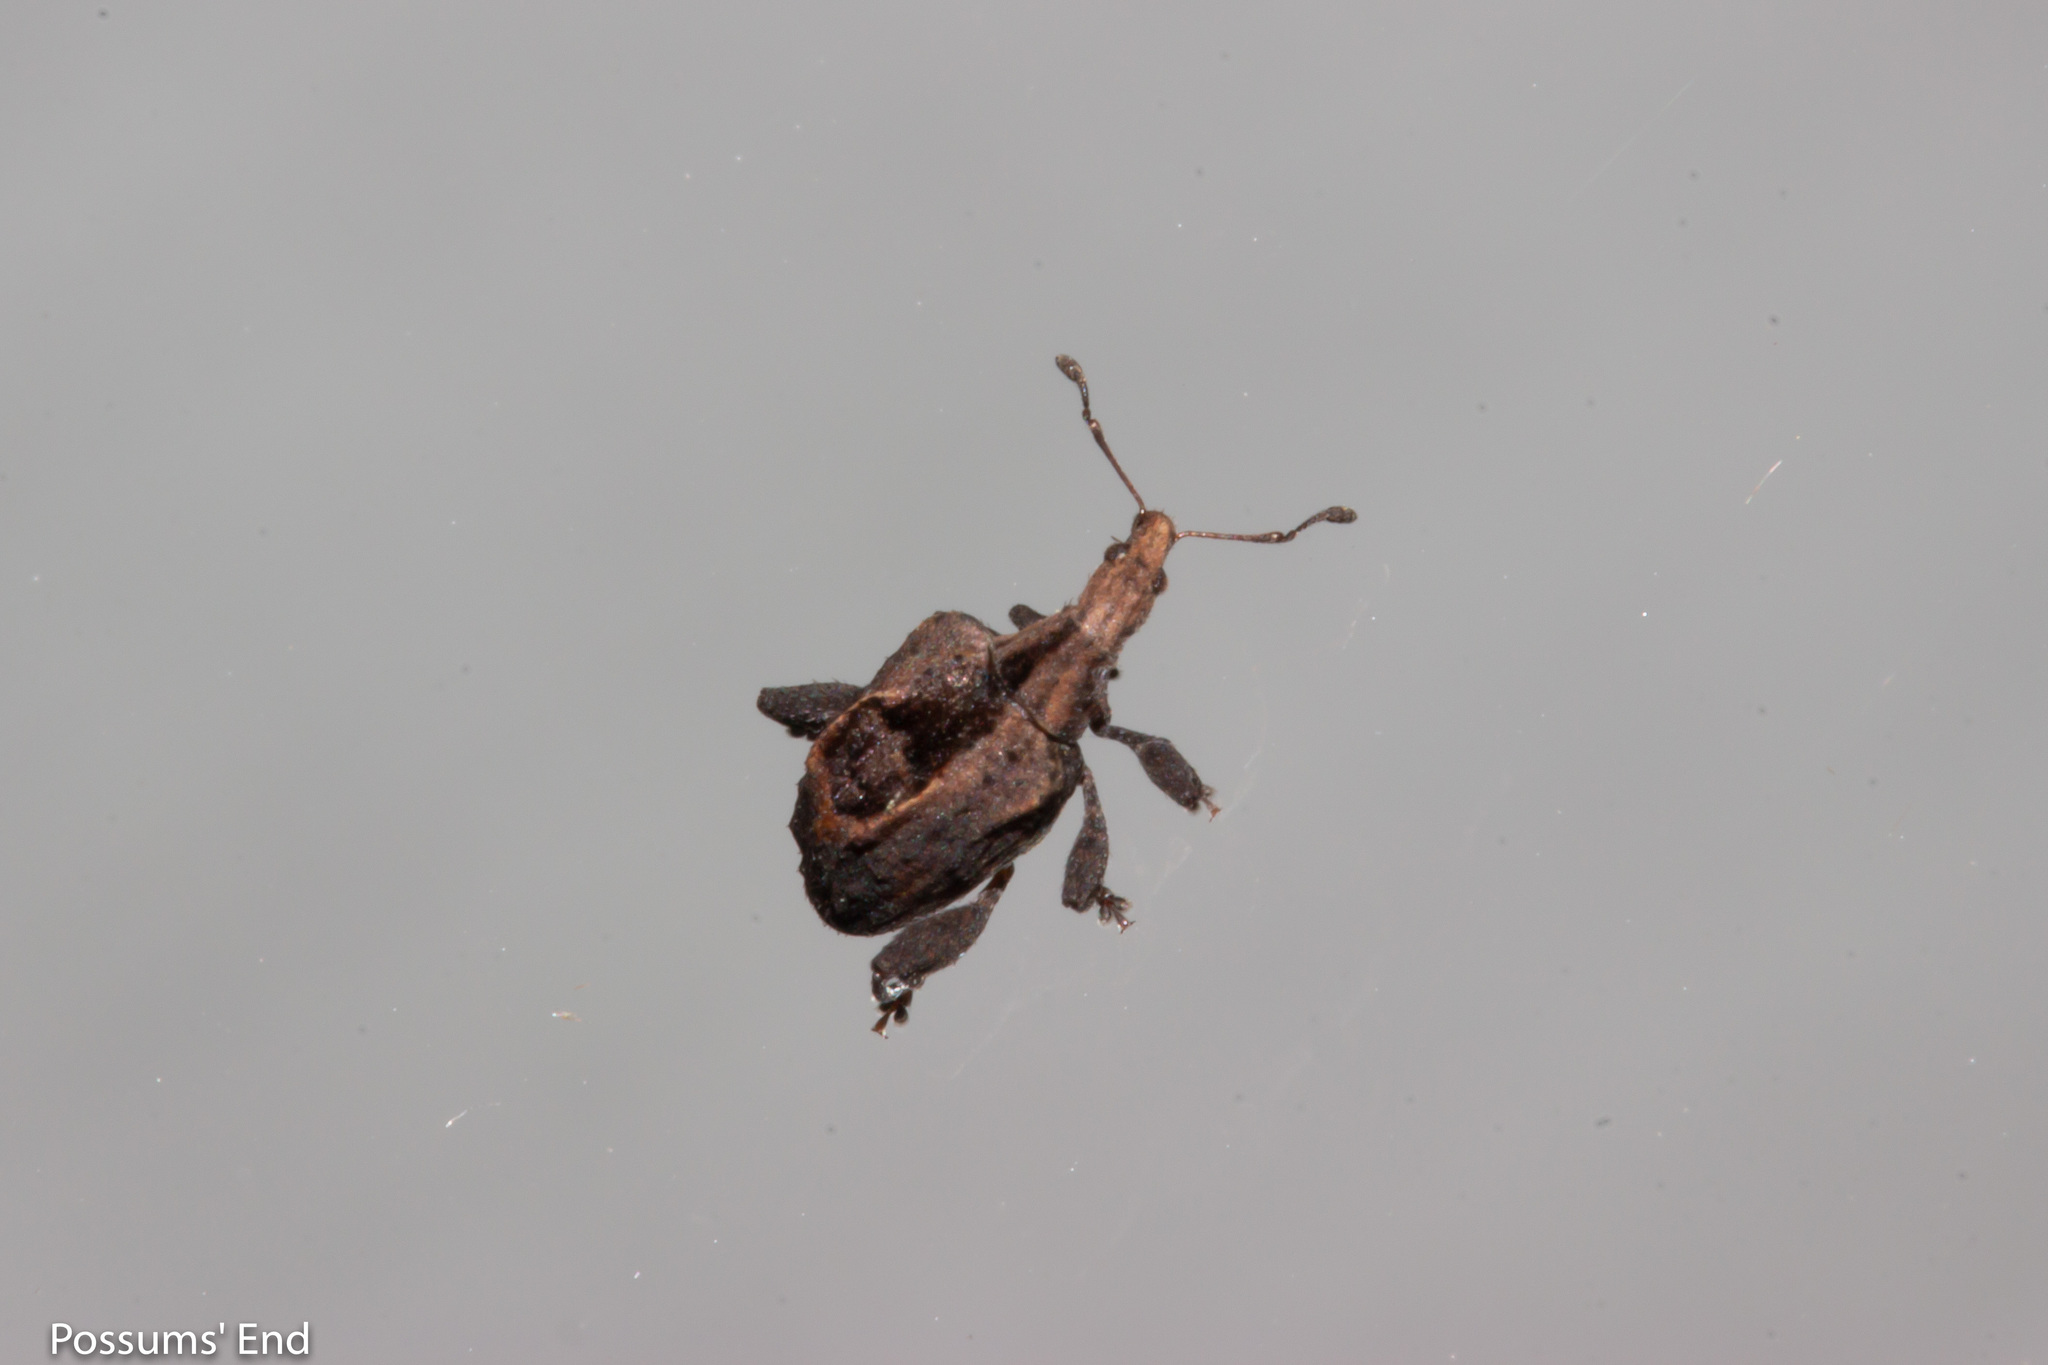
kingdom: Animalia
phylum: Arthropoda
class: Insecta
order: Coleoptera
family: Curculionidae
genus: Stephanorrhynchus
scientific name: Stephanorrhynchus crassus
